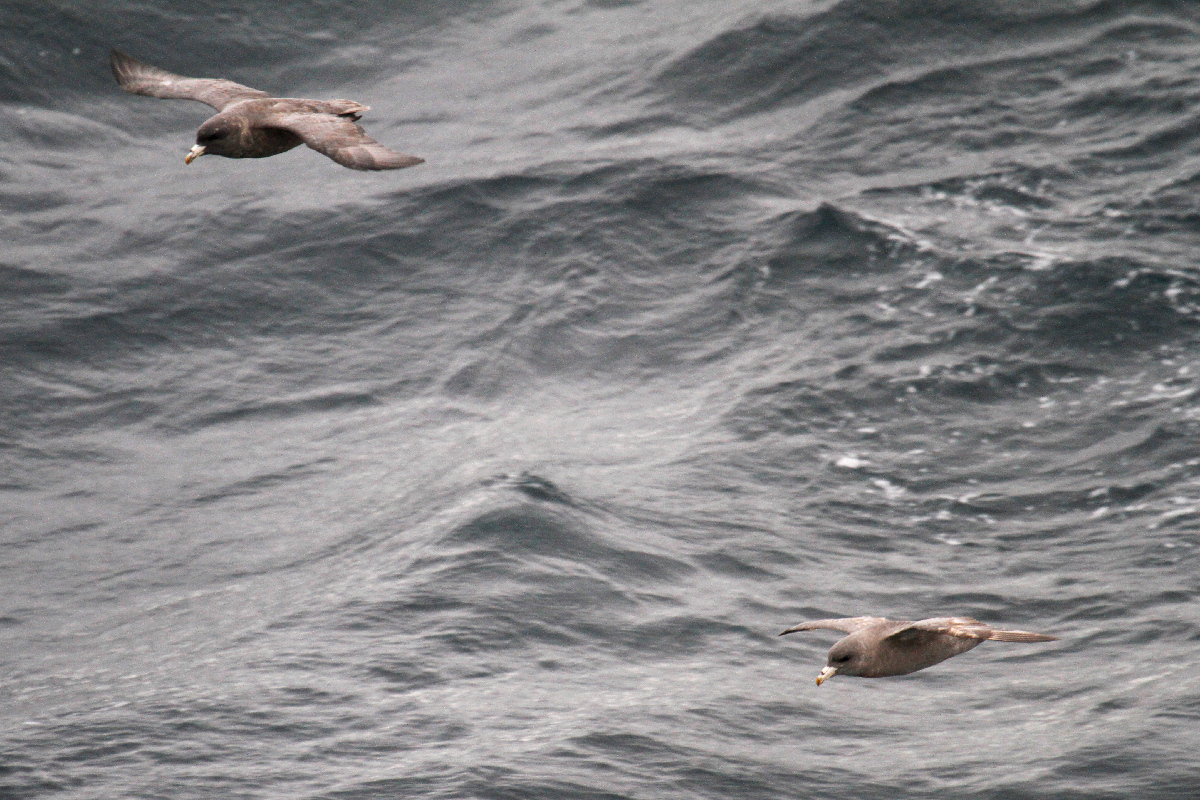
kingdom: Animalia
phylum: Chordata
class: Aves
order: Procellariiformes
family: Procellariidae
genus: Fulmarus
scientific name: Fulmarus glacialis
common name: Northern fulmar
